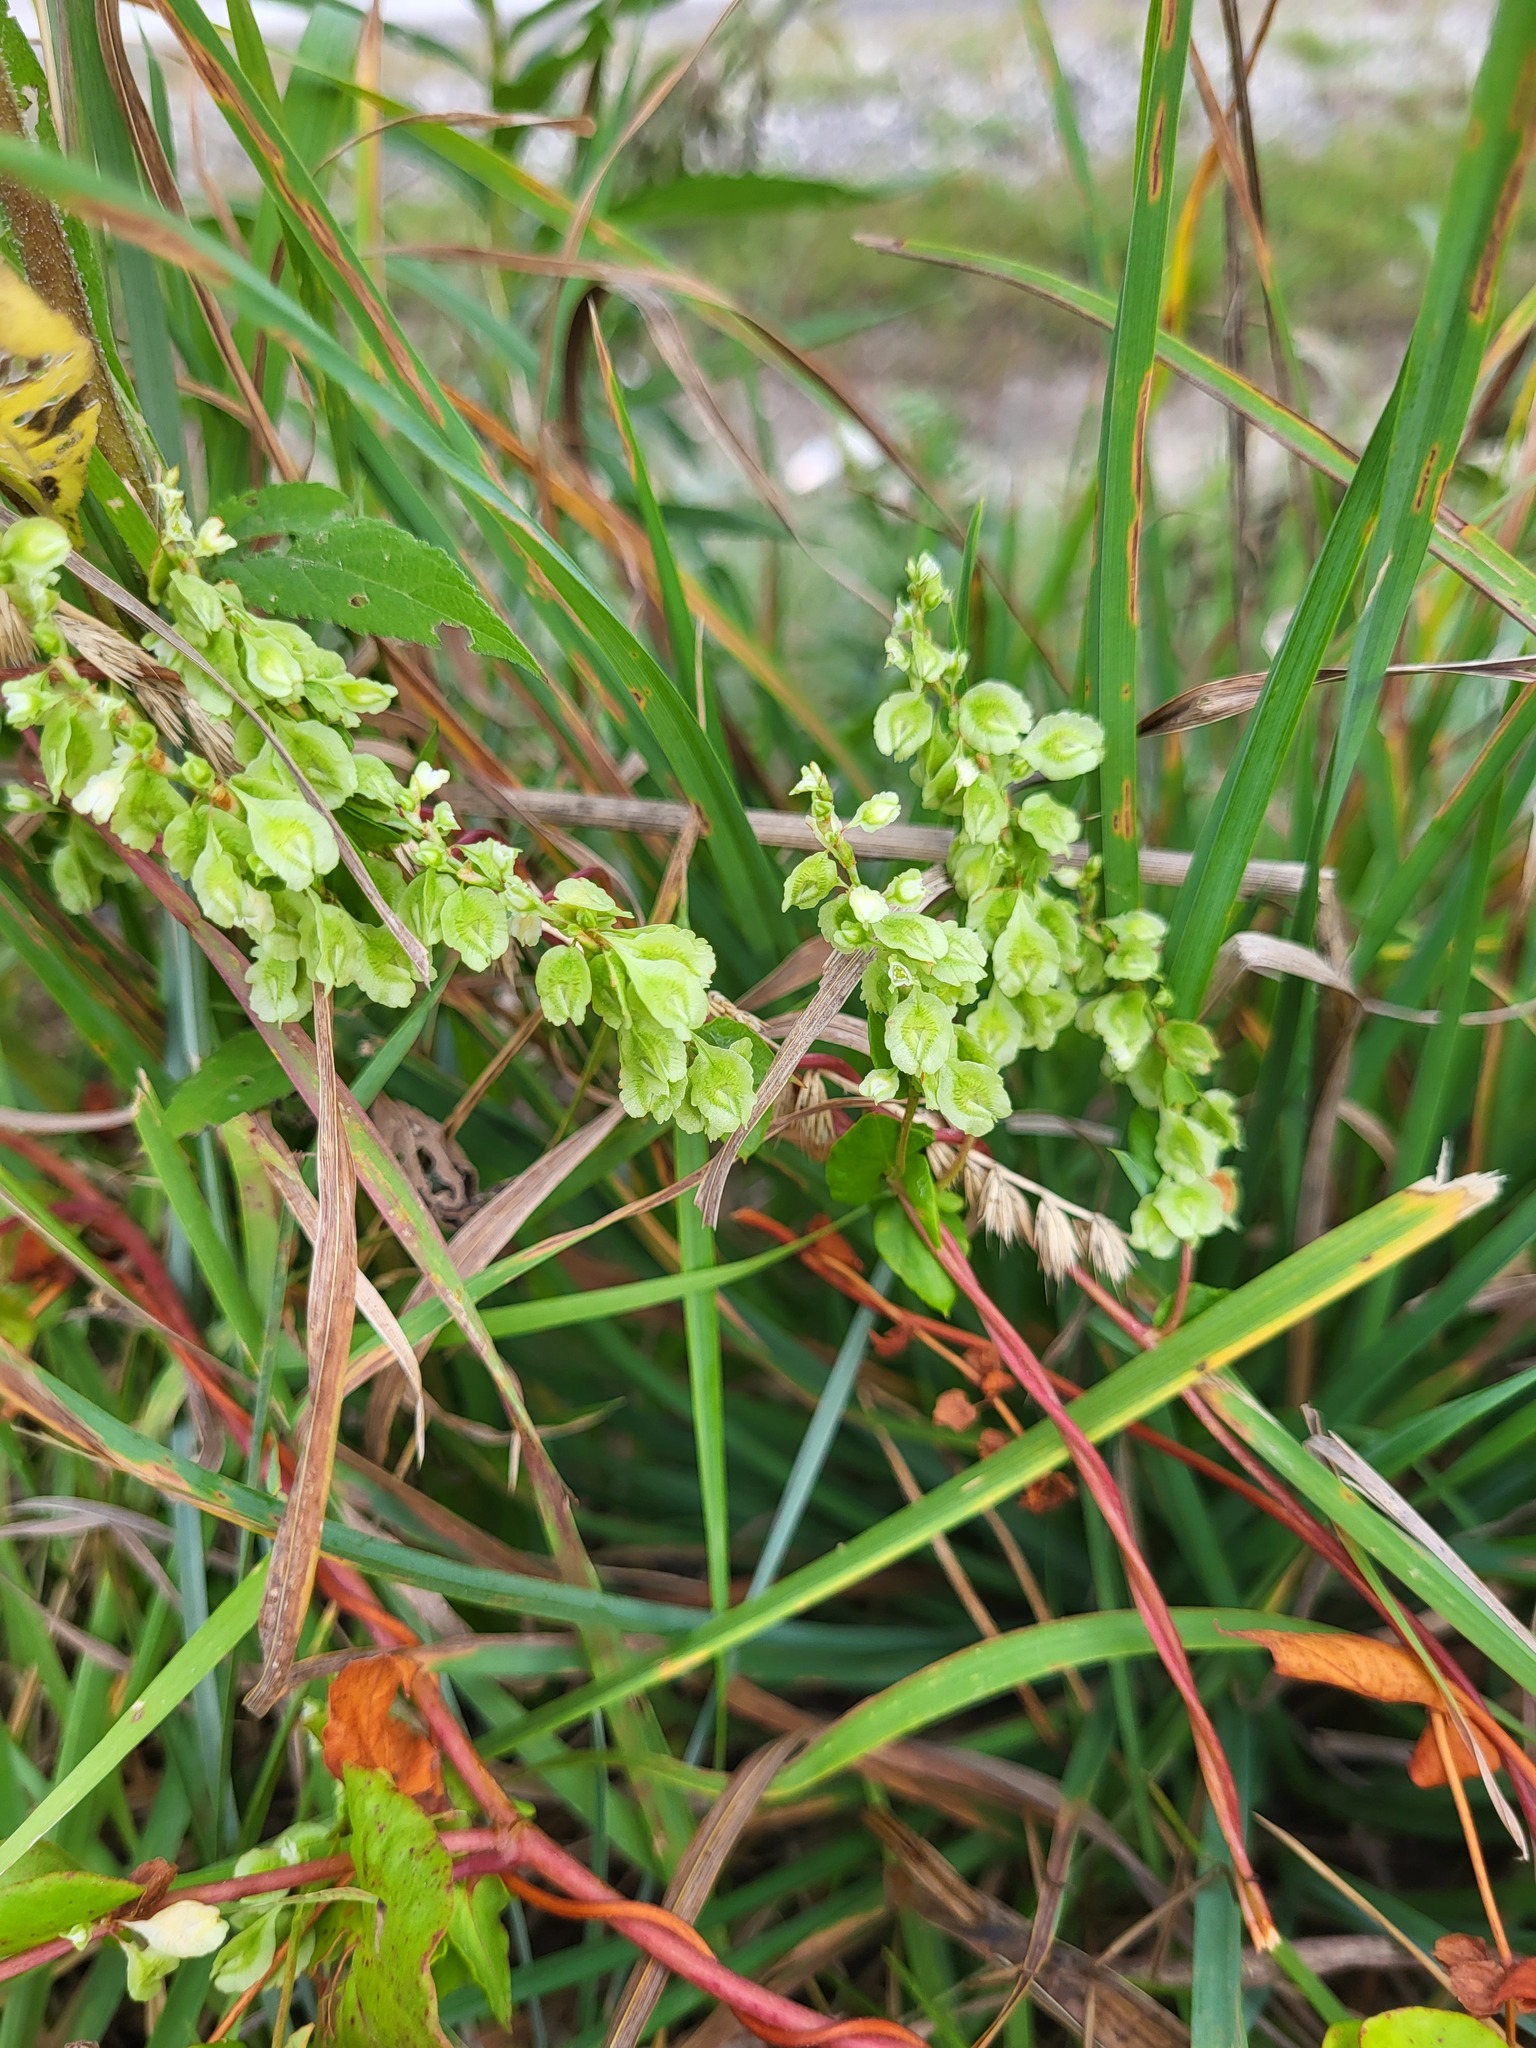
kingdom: Plantae
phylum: Tracheophyta
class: Magnoliopsida
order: Caryophyllales
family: Polygonaceae
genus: Fallopia
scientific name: Fallopia scandens
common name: Climbing false buckwheat
